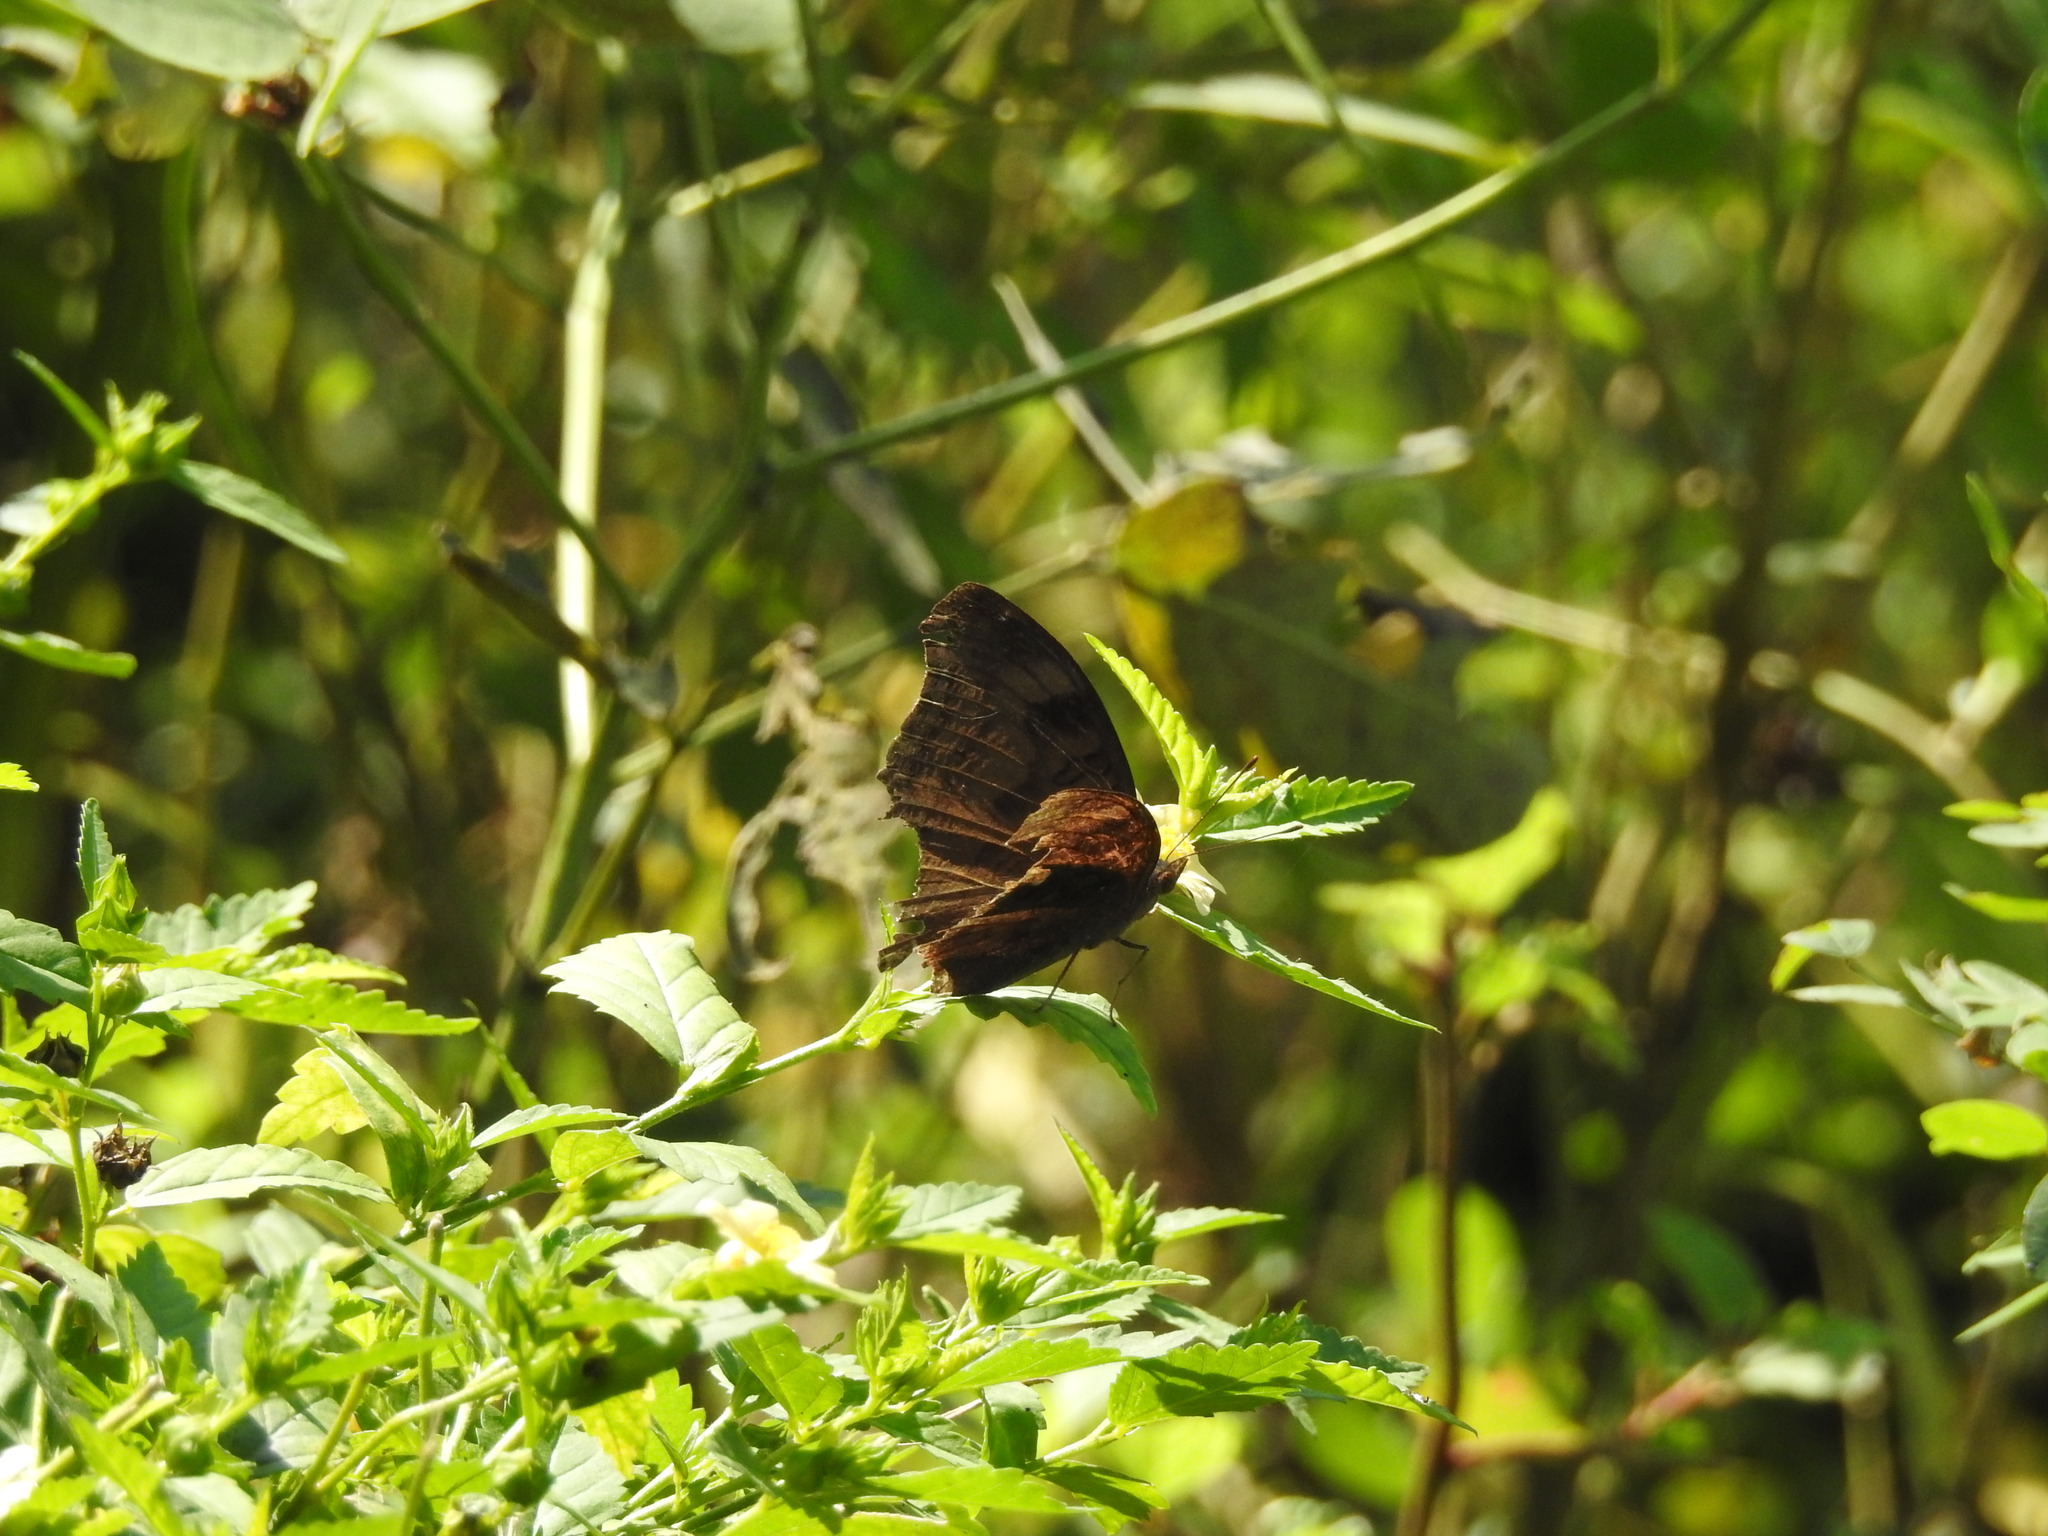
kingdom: Animalia
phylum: Arthropoda
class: Insecta
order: Lepidoptera
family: Nymphalidae
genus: Junonia
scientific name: Junonia iphita
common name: Chocolate pansy
